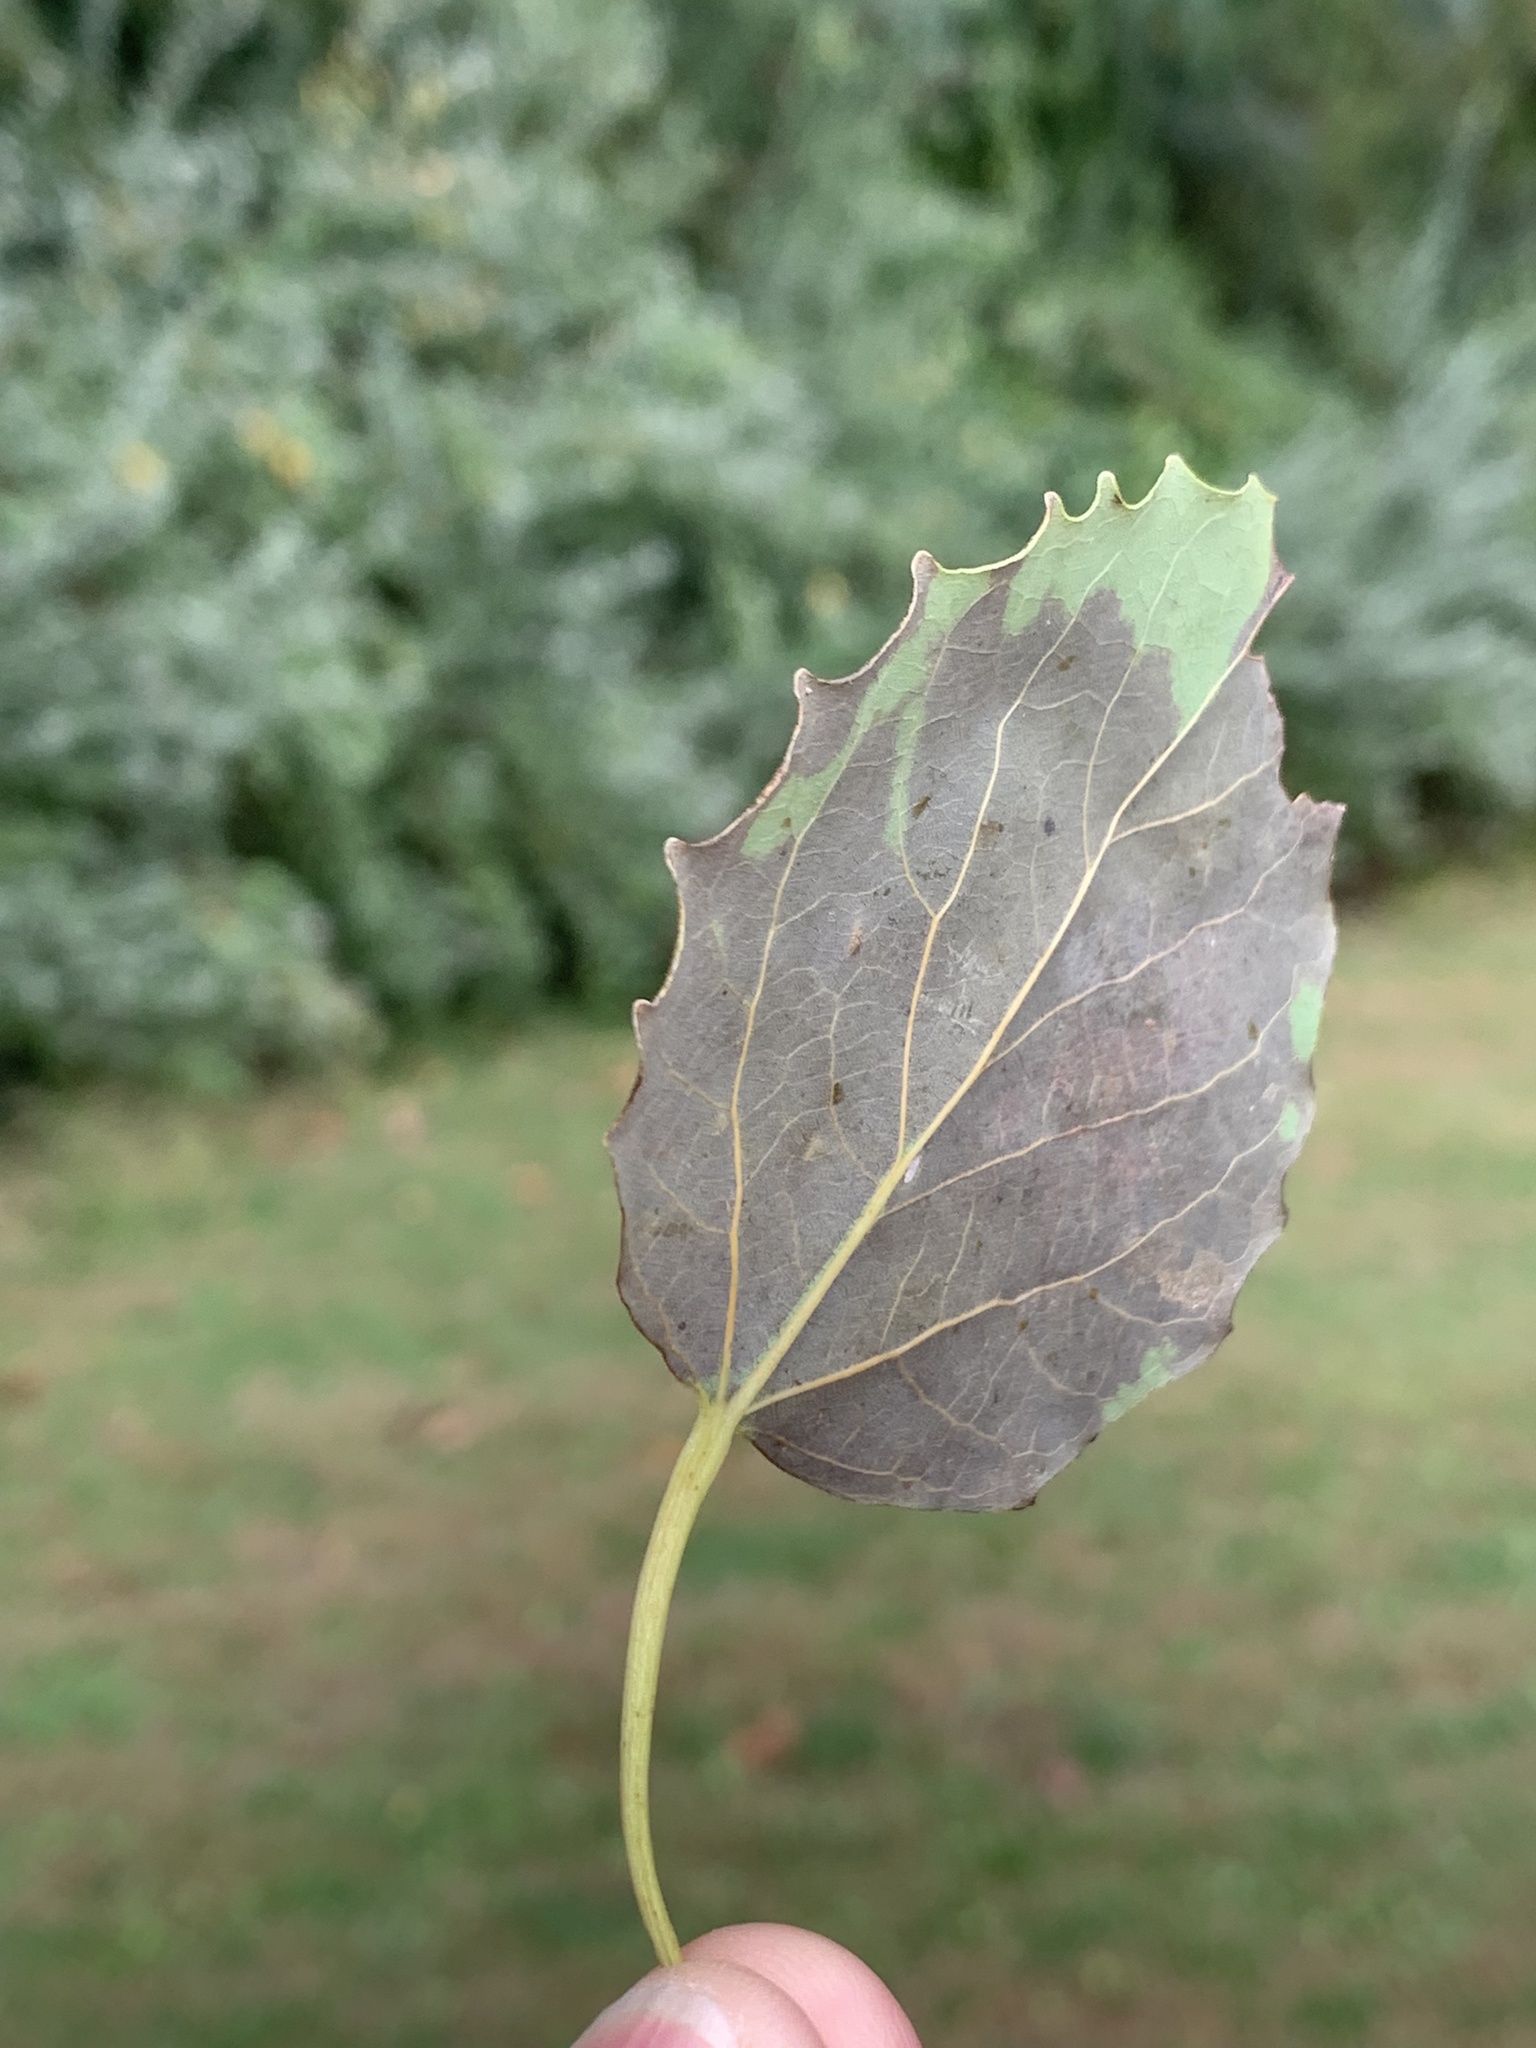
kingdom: Plantae
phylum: Tracheophyta
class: Magnoliopsida
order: Malpighiales
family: Salicaceae
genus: Populus
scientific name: Populus grandidentata
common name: Bigtooth aspen
